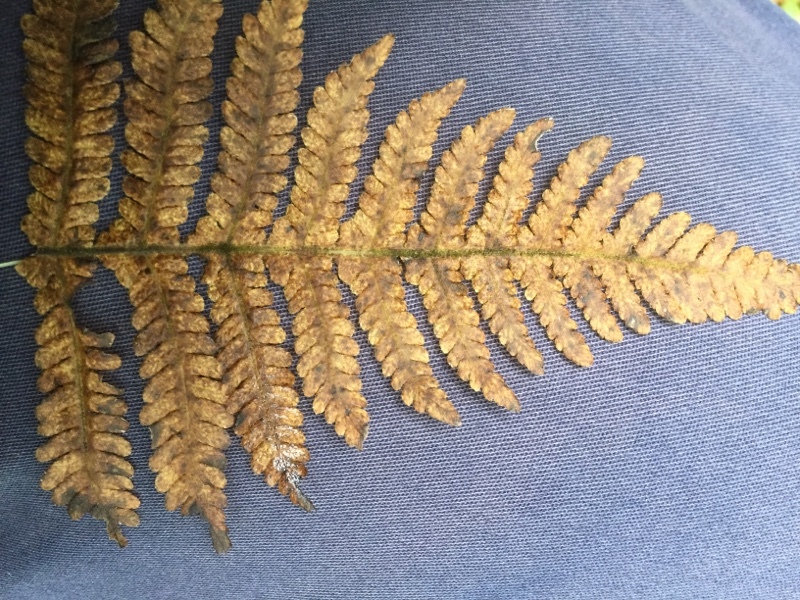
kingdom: Plantae
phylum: Tracheophyta
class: Polypodiopsida
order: Polypodiales
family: Thelypteridaceae
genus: Phegopteris
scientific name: Phegopteris connectilis
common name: Beech fern
